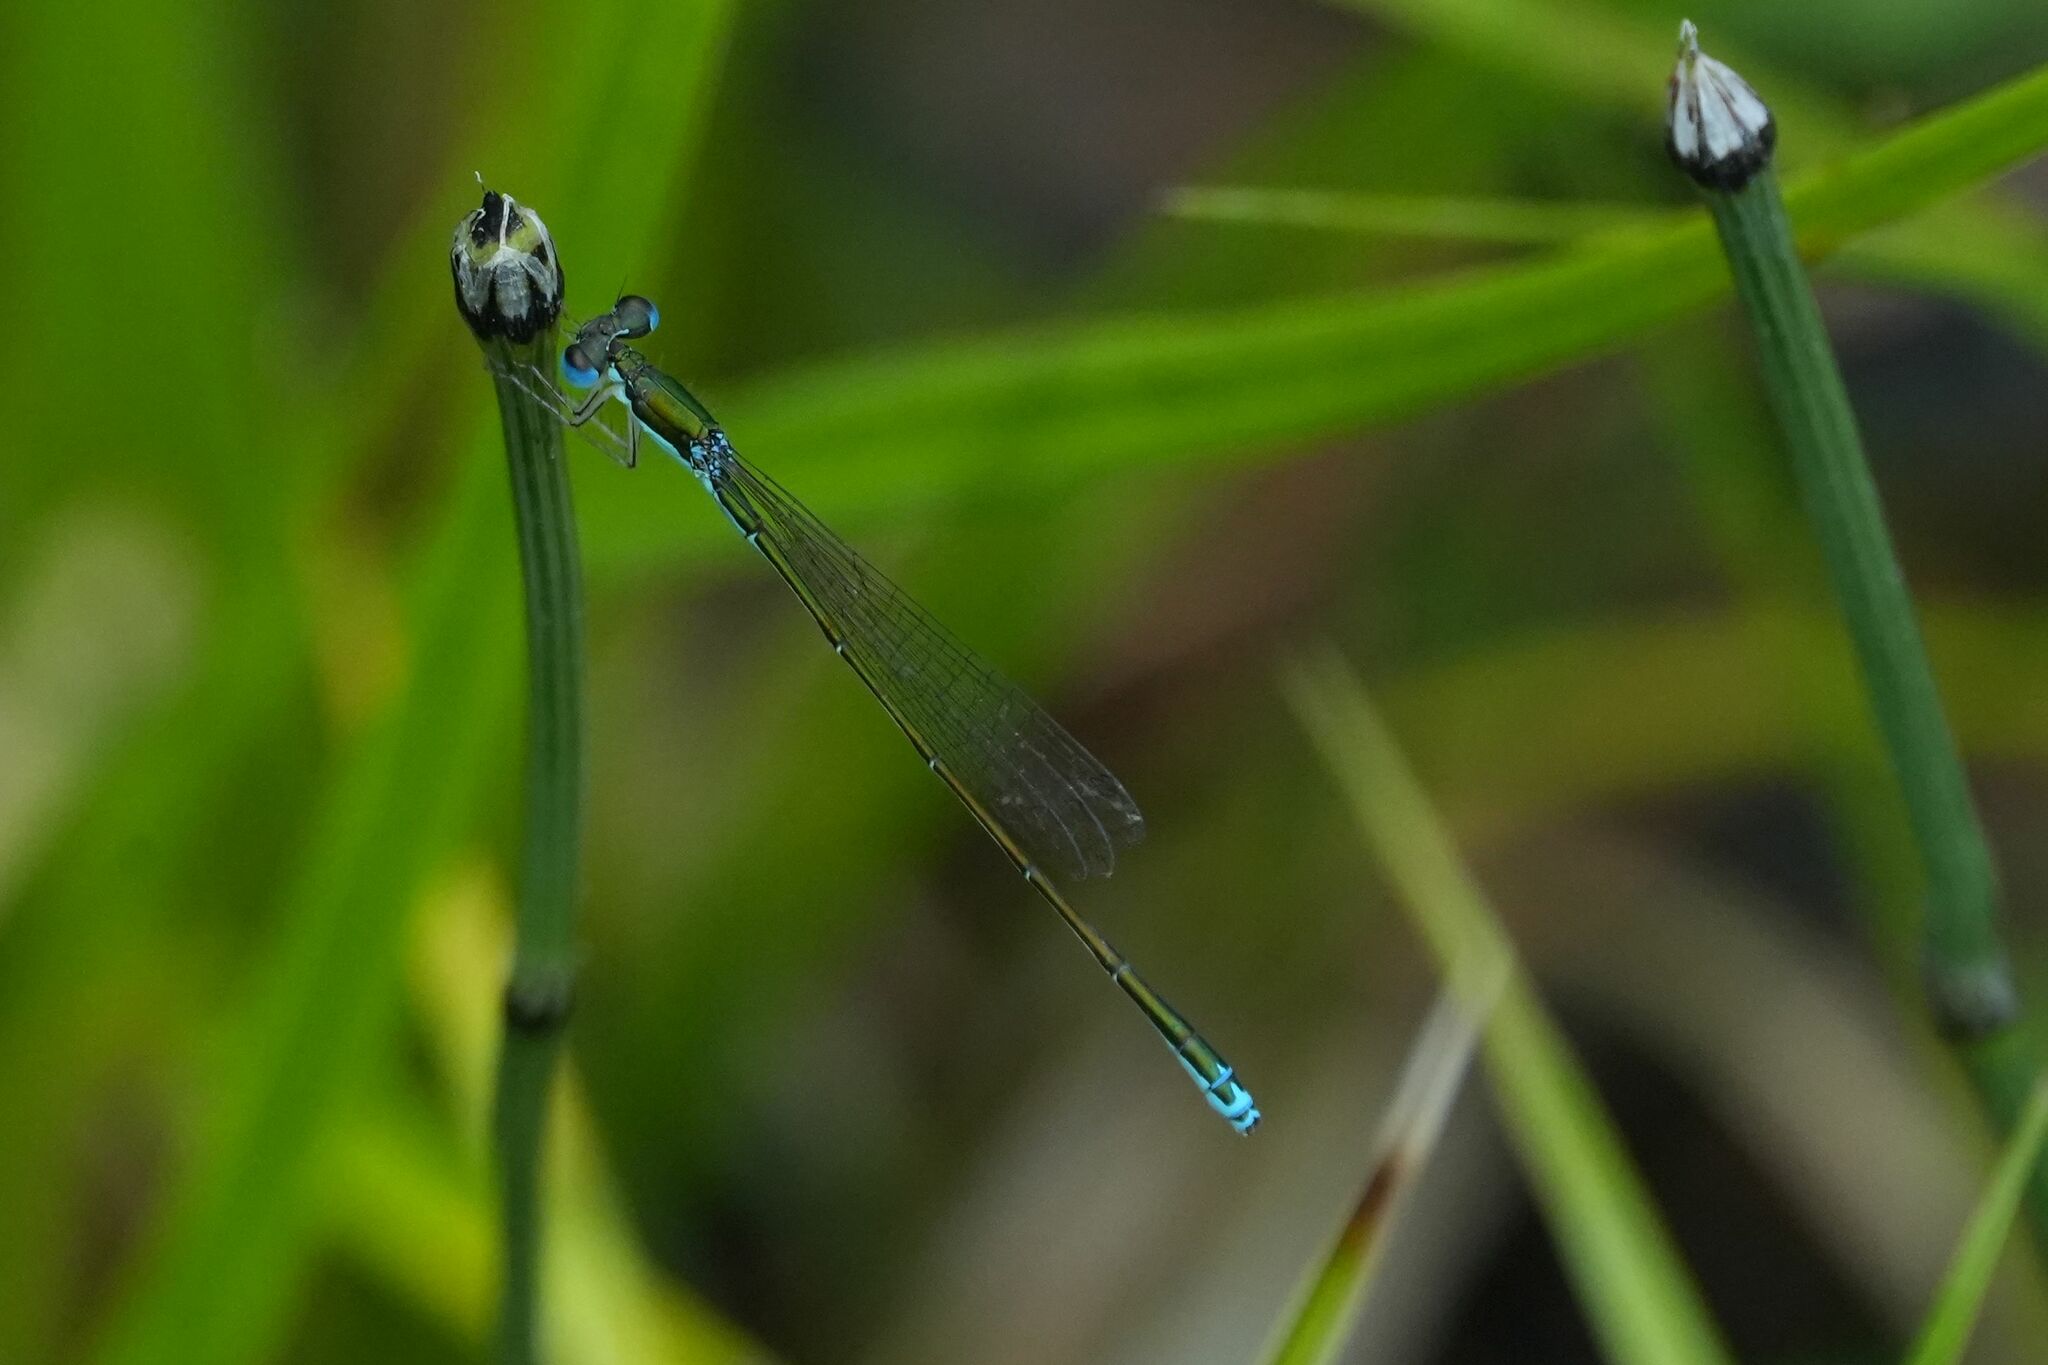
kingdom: Animalia
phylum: Arthropoda
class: Insecta
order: Odonata
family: Coenagrionidae
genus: Nehalennia
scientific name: Nehalennia irene
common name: Sedge sprite
